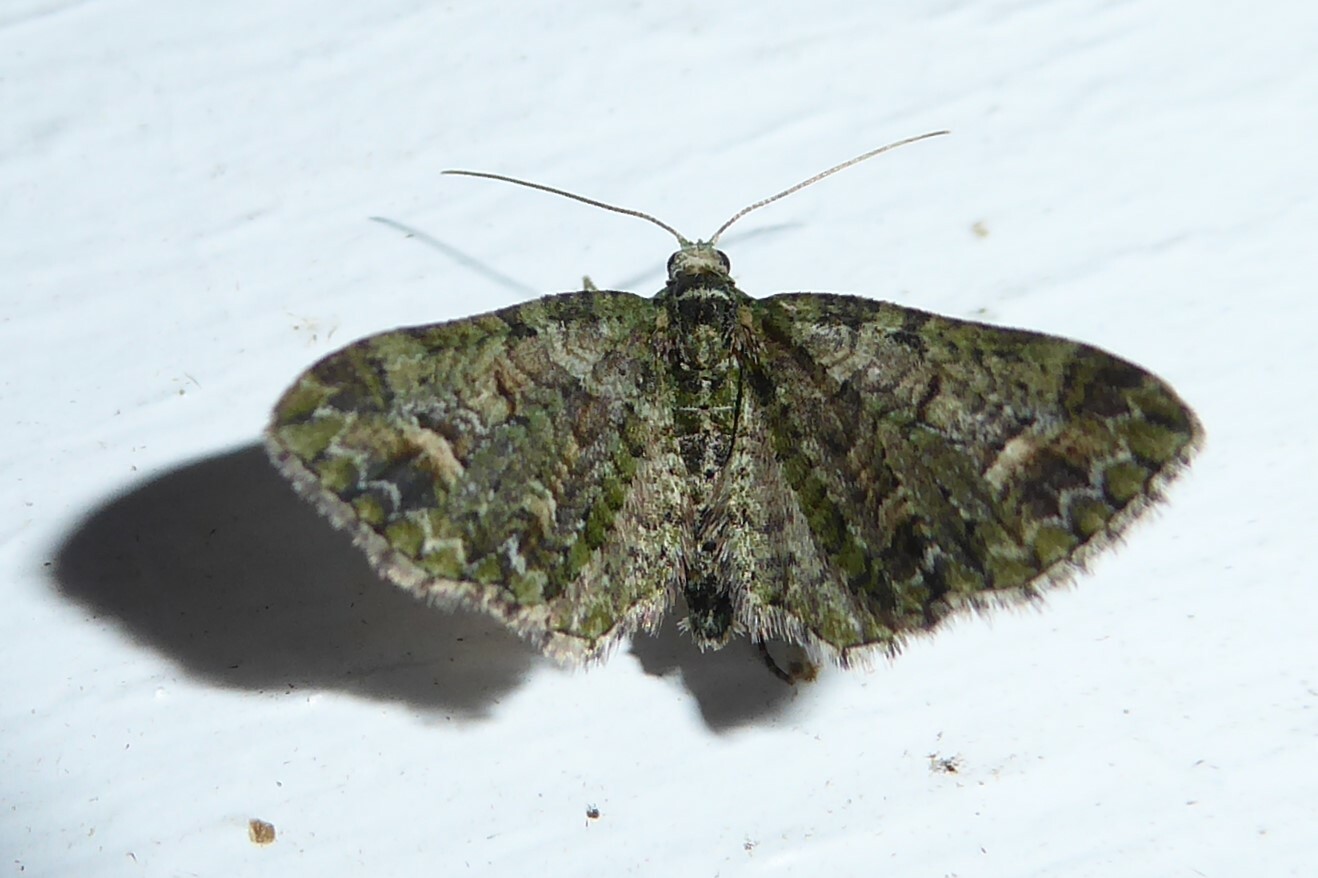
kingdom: Animalia
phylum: Arthropoda
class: Insecta
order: Lepidoptera
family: Geometridae
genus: Idaea
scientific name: Idaea mutanda
